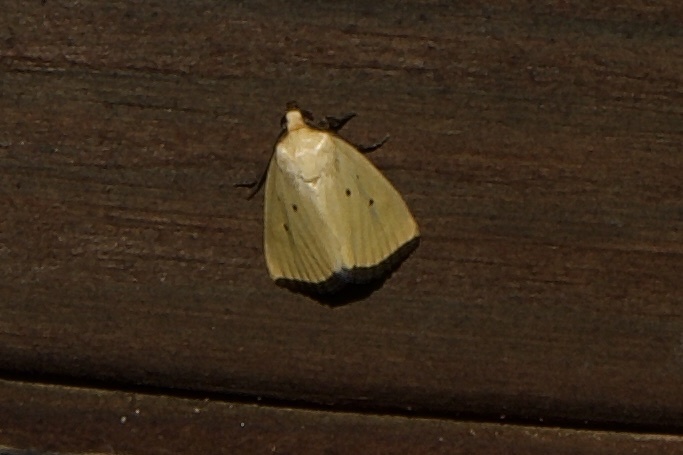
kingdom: Animalia
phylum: Arthropoda
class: Insecta
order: Lepidoptera
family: Noctuidae
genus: Marimatha
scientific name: Marimatha nigrofimbria
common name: Black-bordered lemon moth
